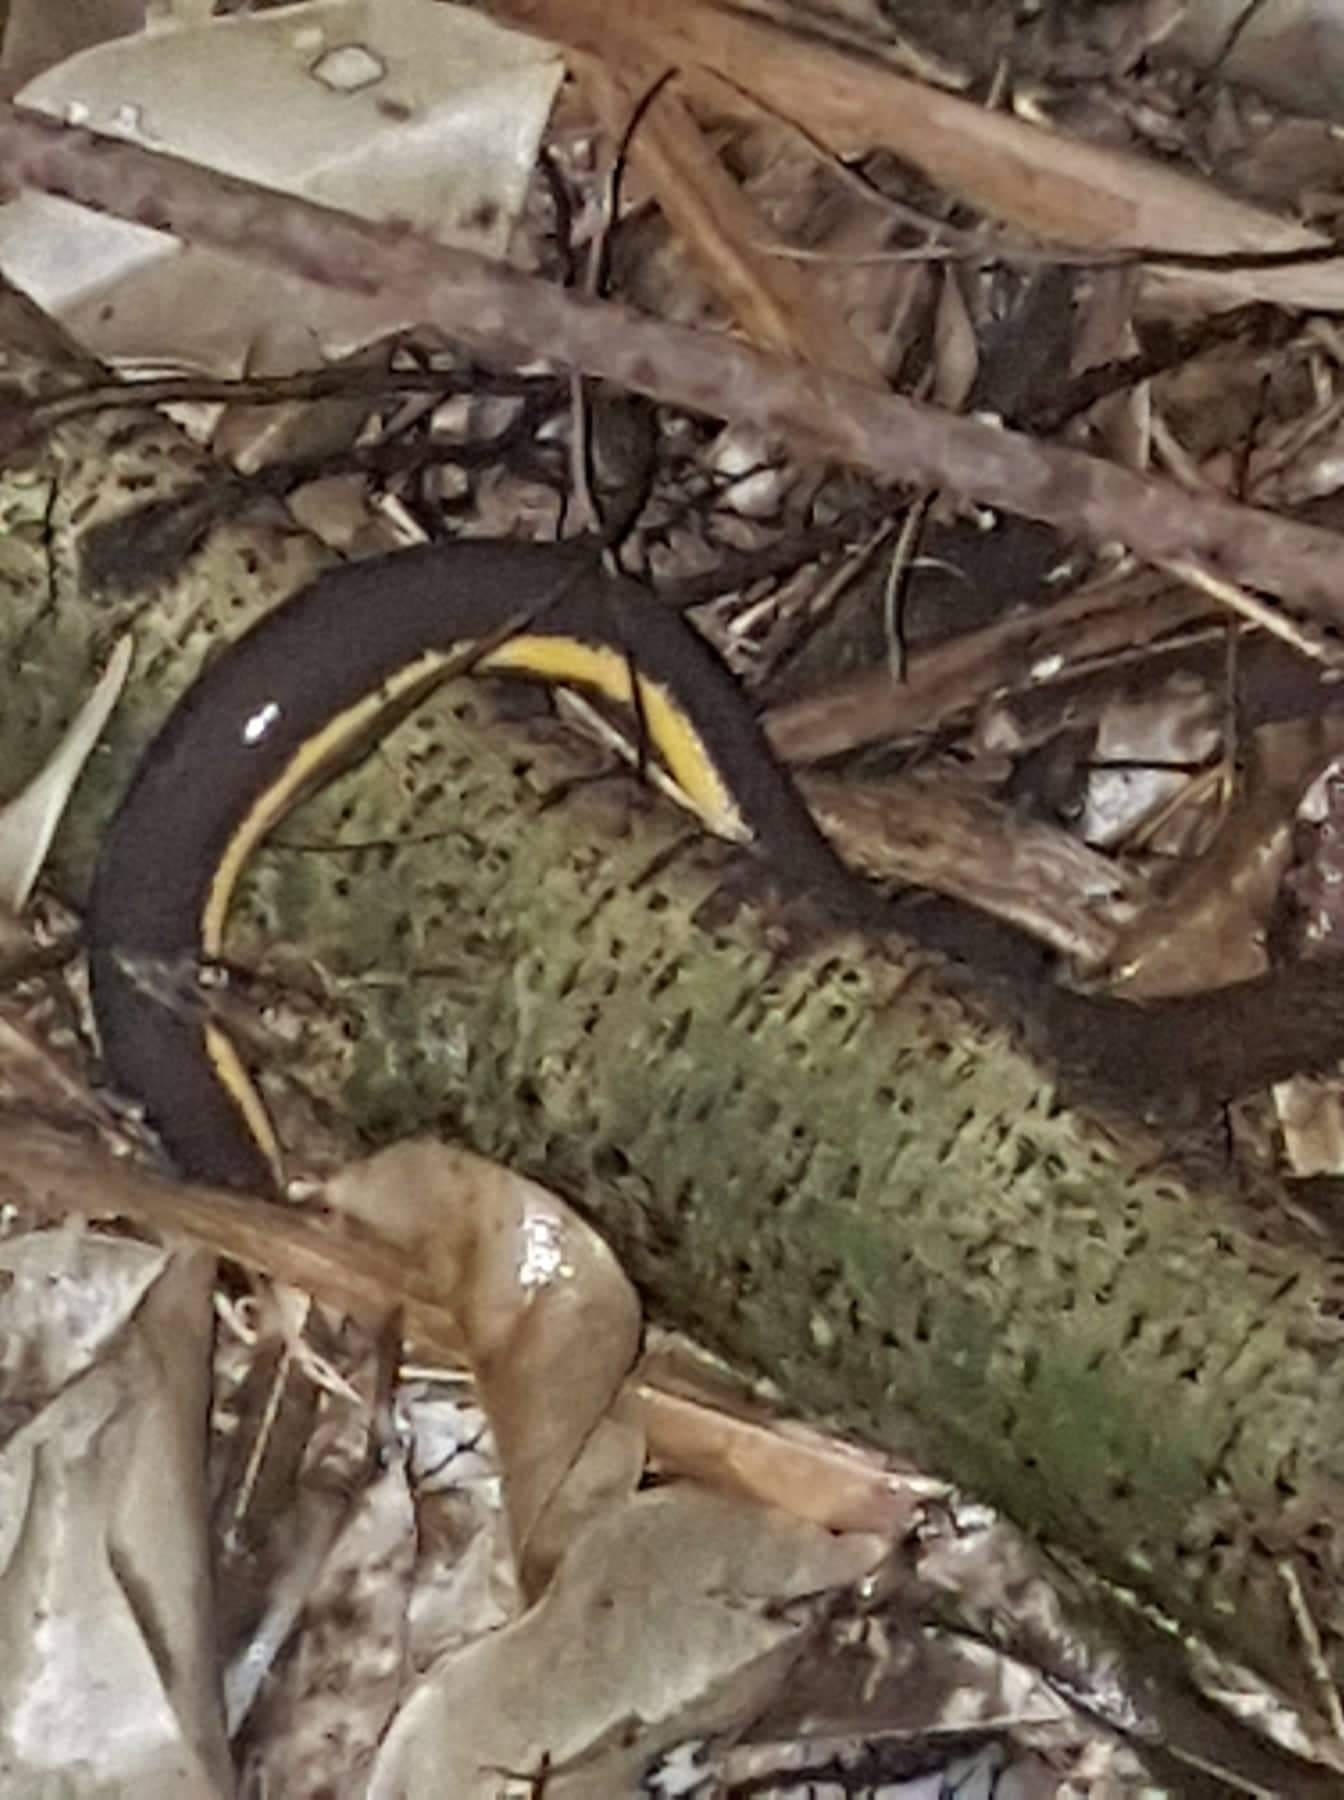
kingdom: Animalia
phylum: Chordata
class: Amphibia
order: Gymnophiona
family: Ichthyophiidae
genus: Ichthyophis
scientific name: Ichthyophis kohtaoensis
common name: Koa tao island caecilian
